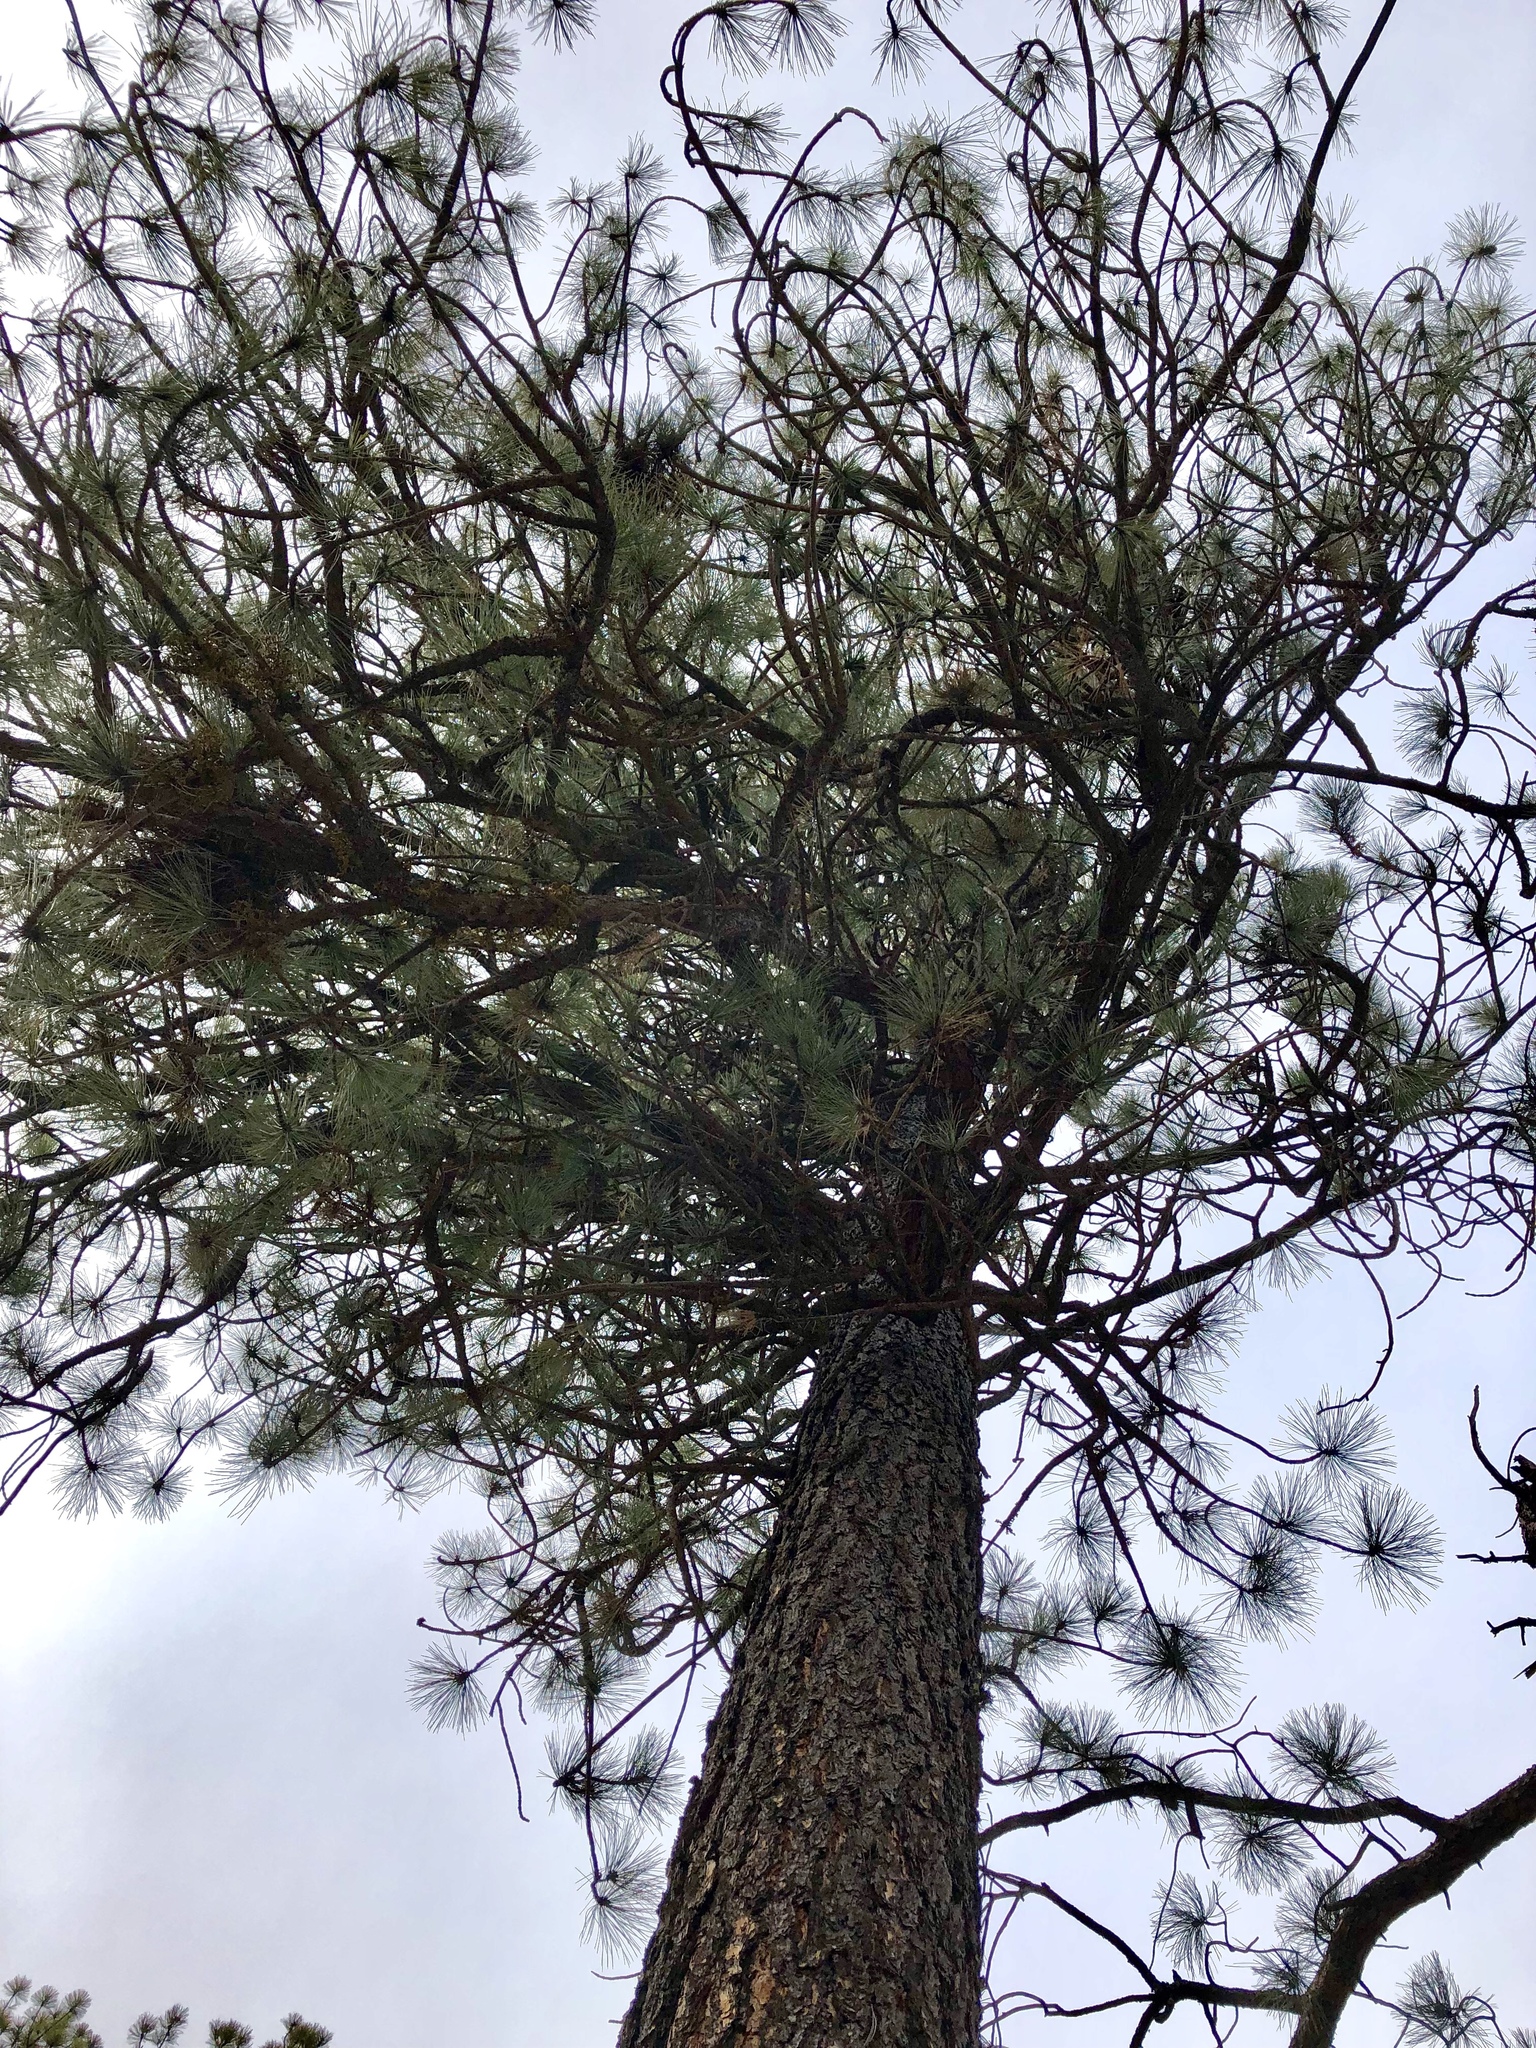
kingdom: Plantae
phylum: Tracheophyta
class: Pinopsida
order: Pinales
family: Pinaceae
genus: Pinus
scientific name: Pinus ponderosa
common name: Western yellow-pine
